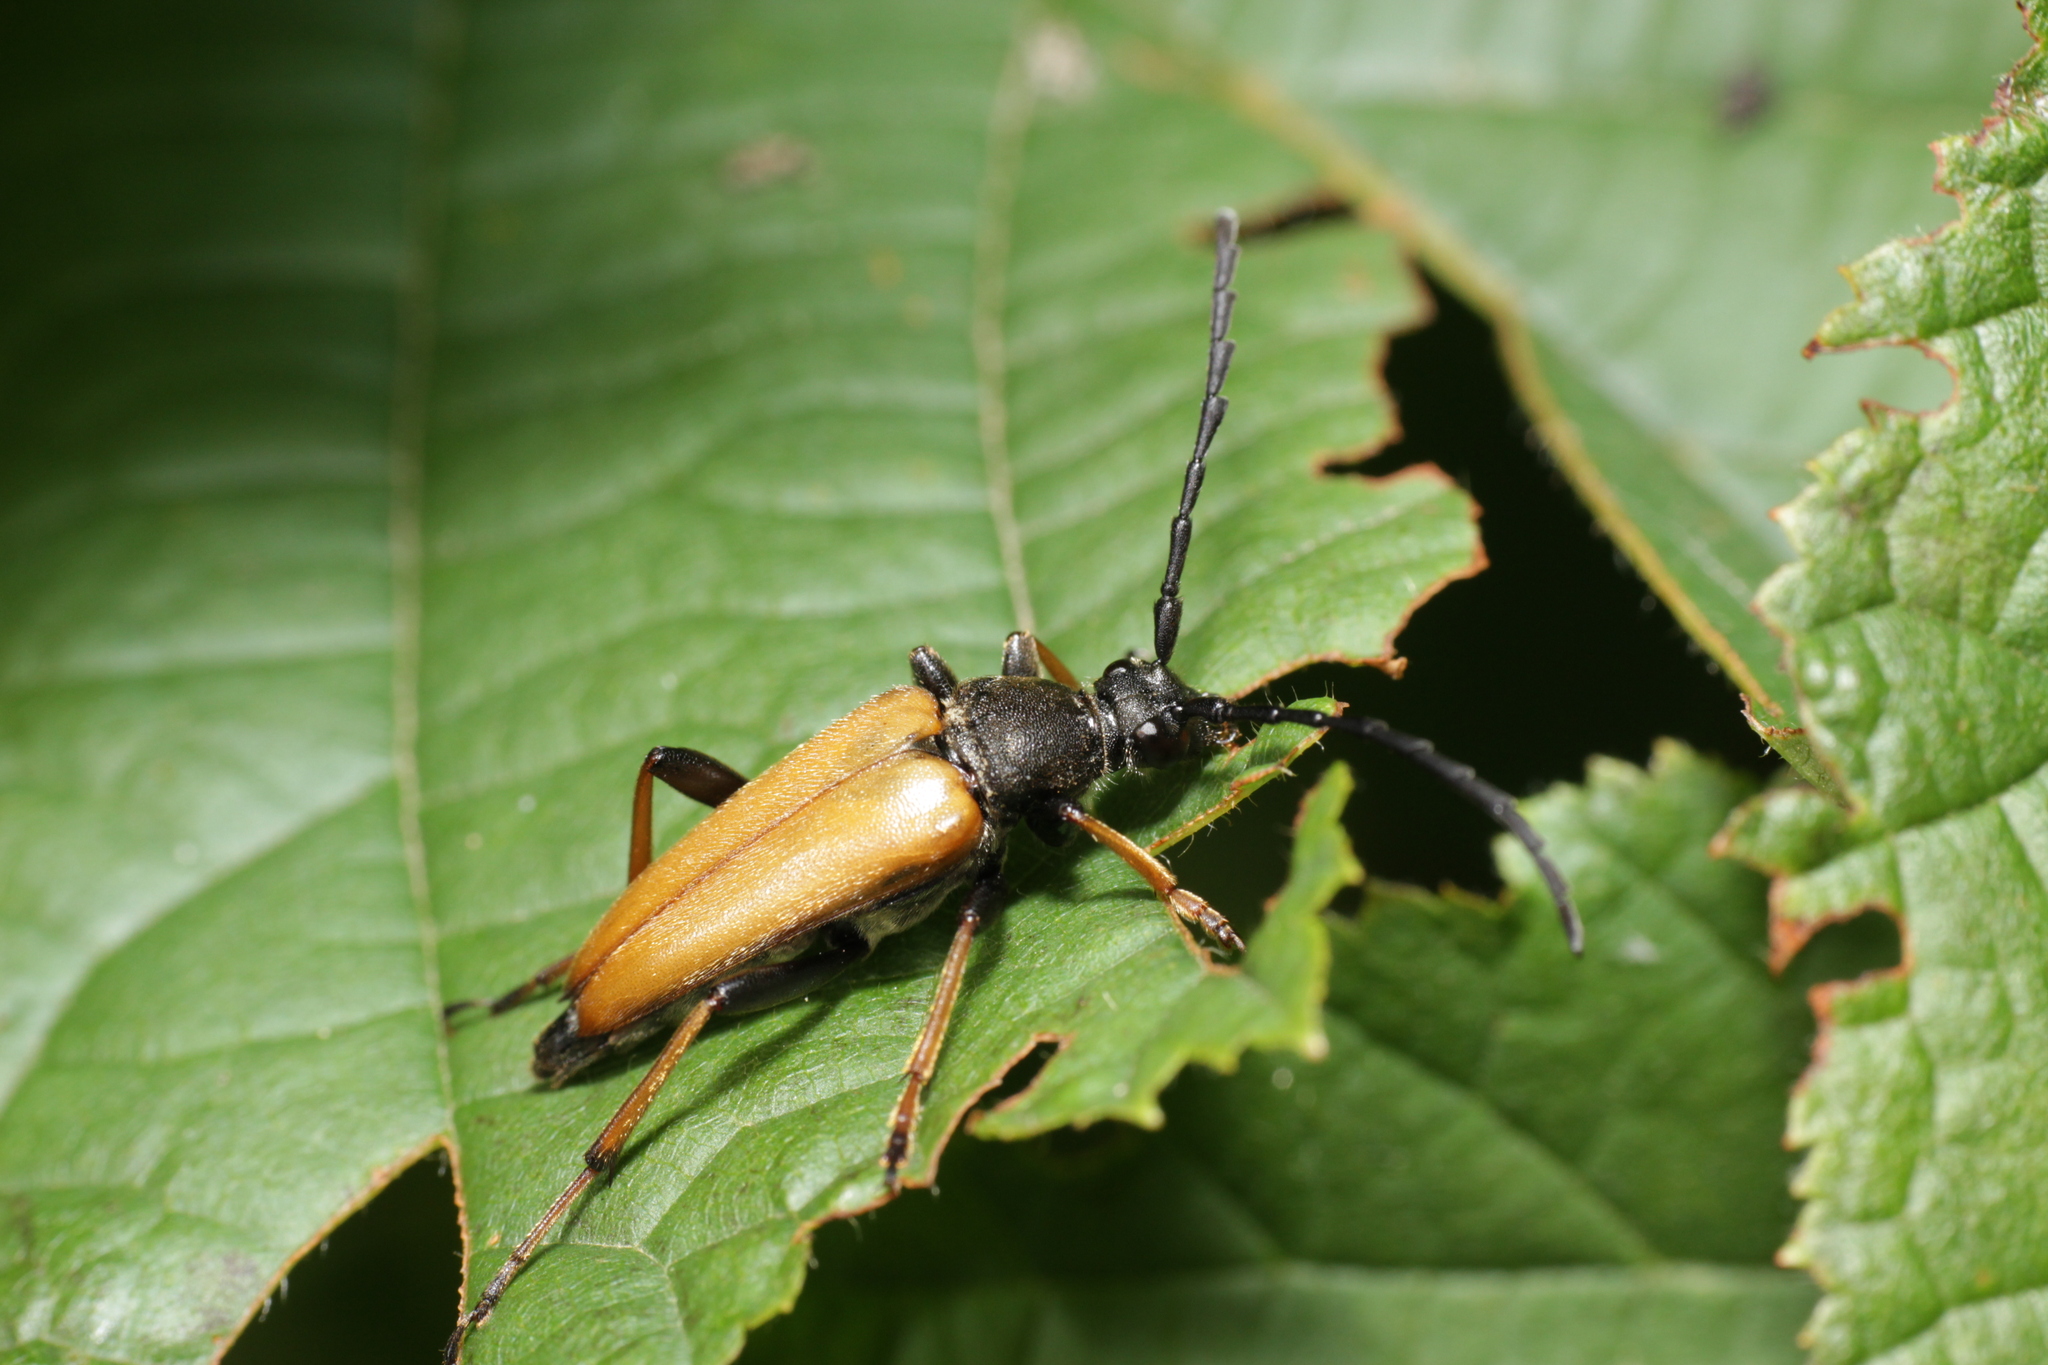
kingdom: Animalia
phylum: Arthropoda
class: Insecta
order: Coleoptera
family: Cerambycidae
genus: Stictoleptura
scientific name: Stictoleptura rubra
